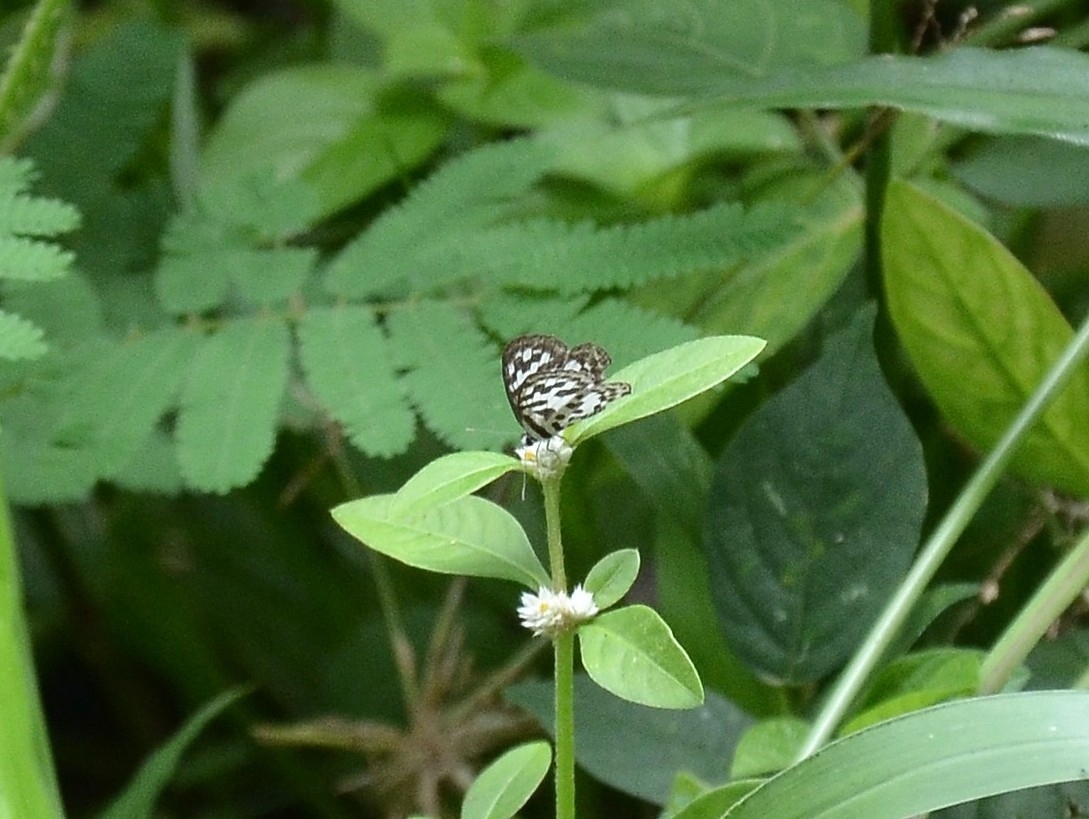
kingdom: Animalia
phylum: Arthropoda
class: Insecta
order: Lepidoptera
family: Lycaenidae
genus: Castalius
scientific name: Castalius rosimon
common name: Common pierrot
